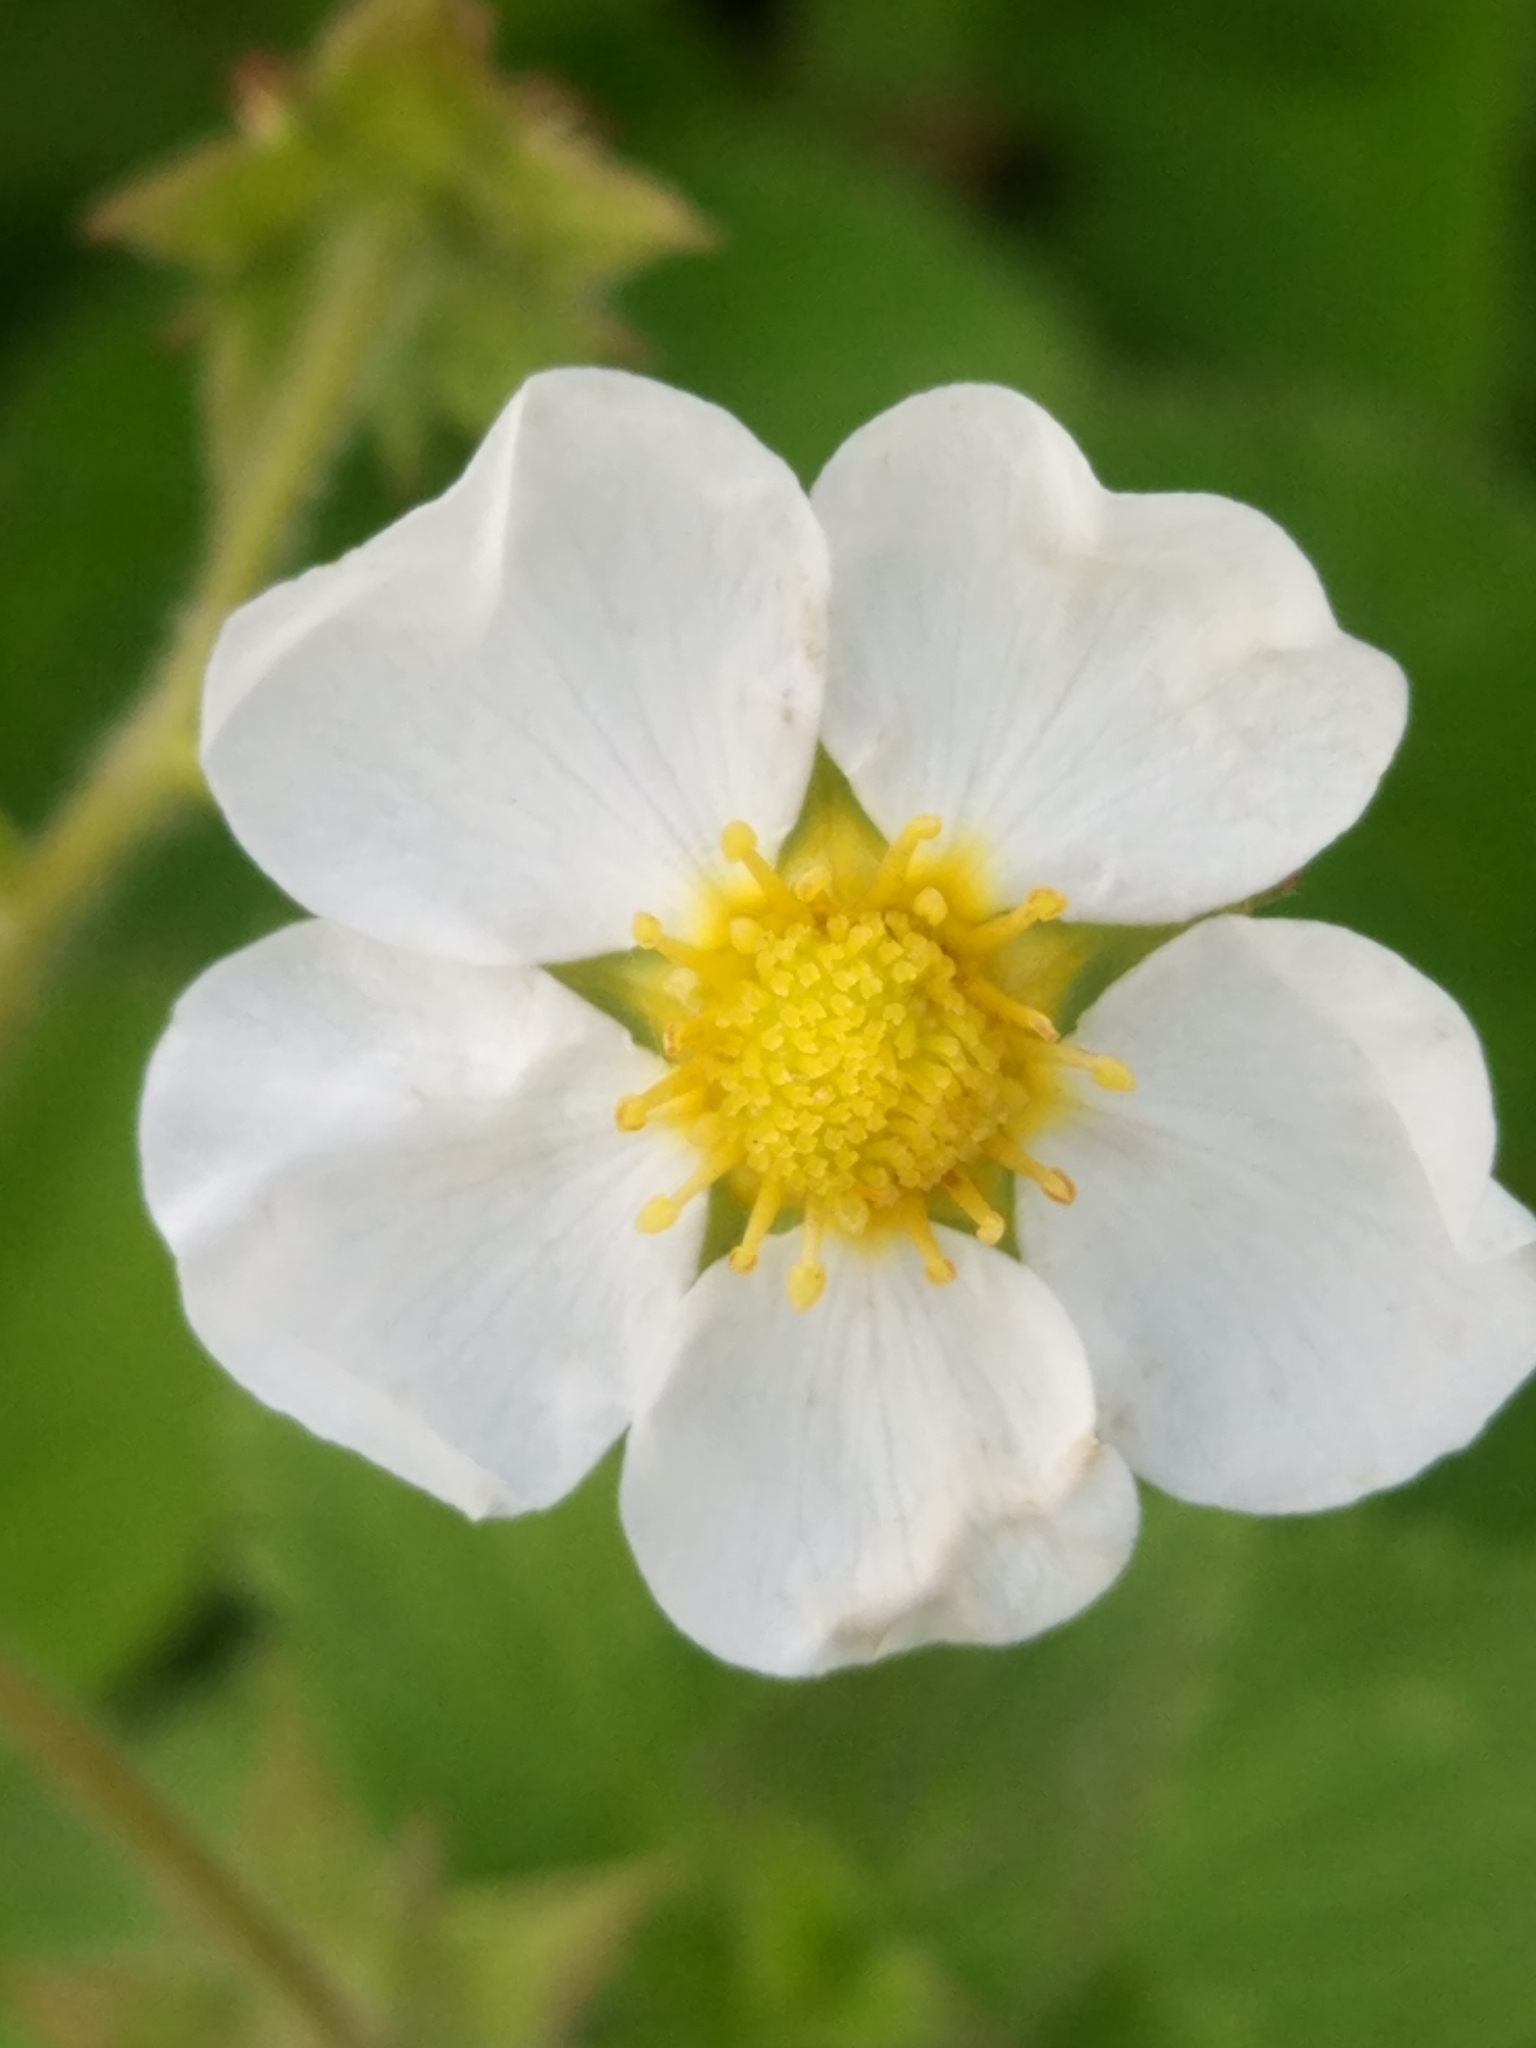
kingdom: Plantae
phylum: Tracheophyta
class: Magnoliopsida
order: Rosales
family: Rosaceae
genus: Fragaria
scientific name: Fragaria ananassa
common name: Garden strawberry
